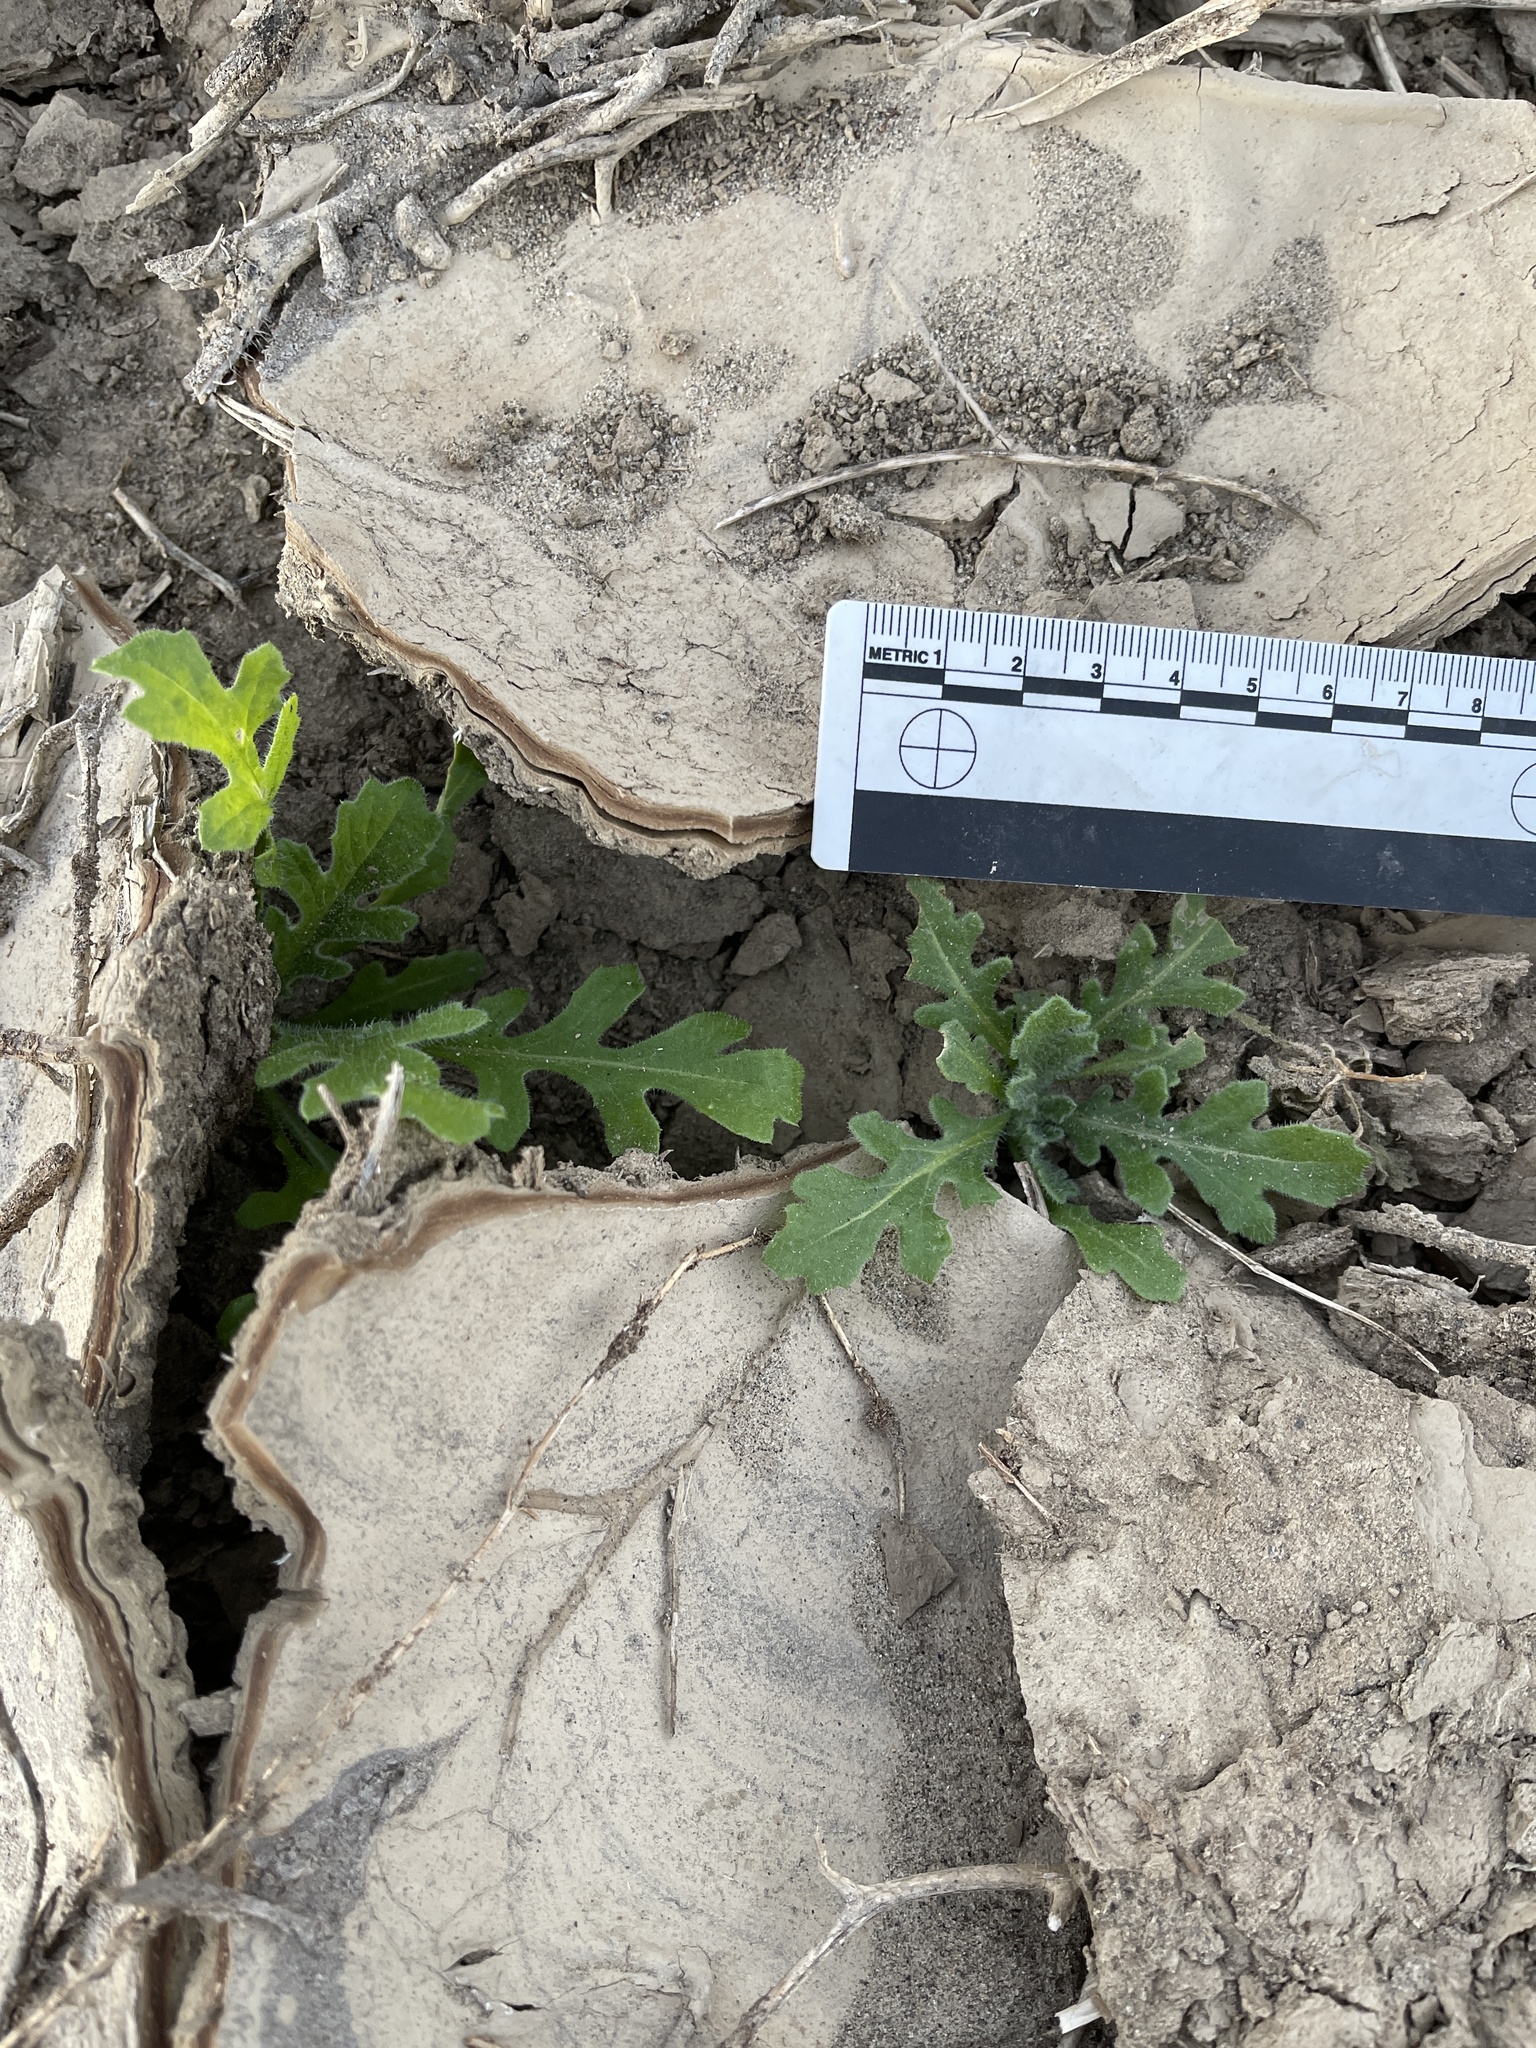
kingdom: Plantae
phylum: Tracheophyta
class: Magnoliopsida
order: Asterales
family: Asteraceae
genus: Volutaria
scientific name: Volutaria tubuliflora
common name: Desert knapweed
